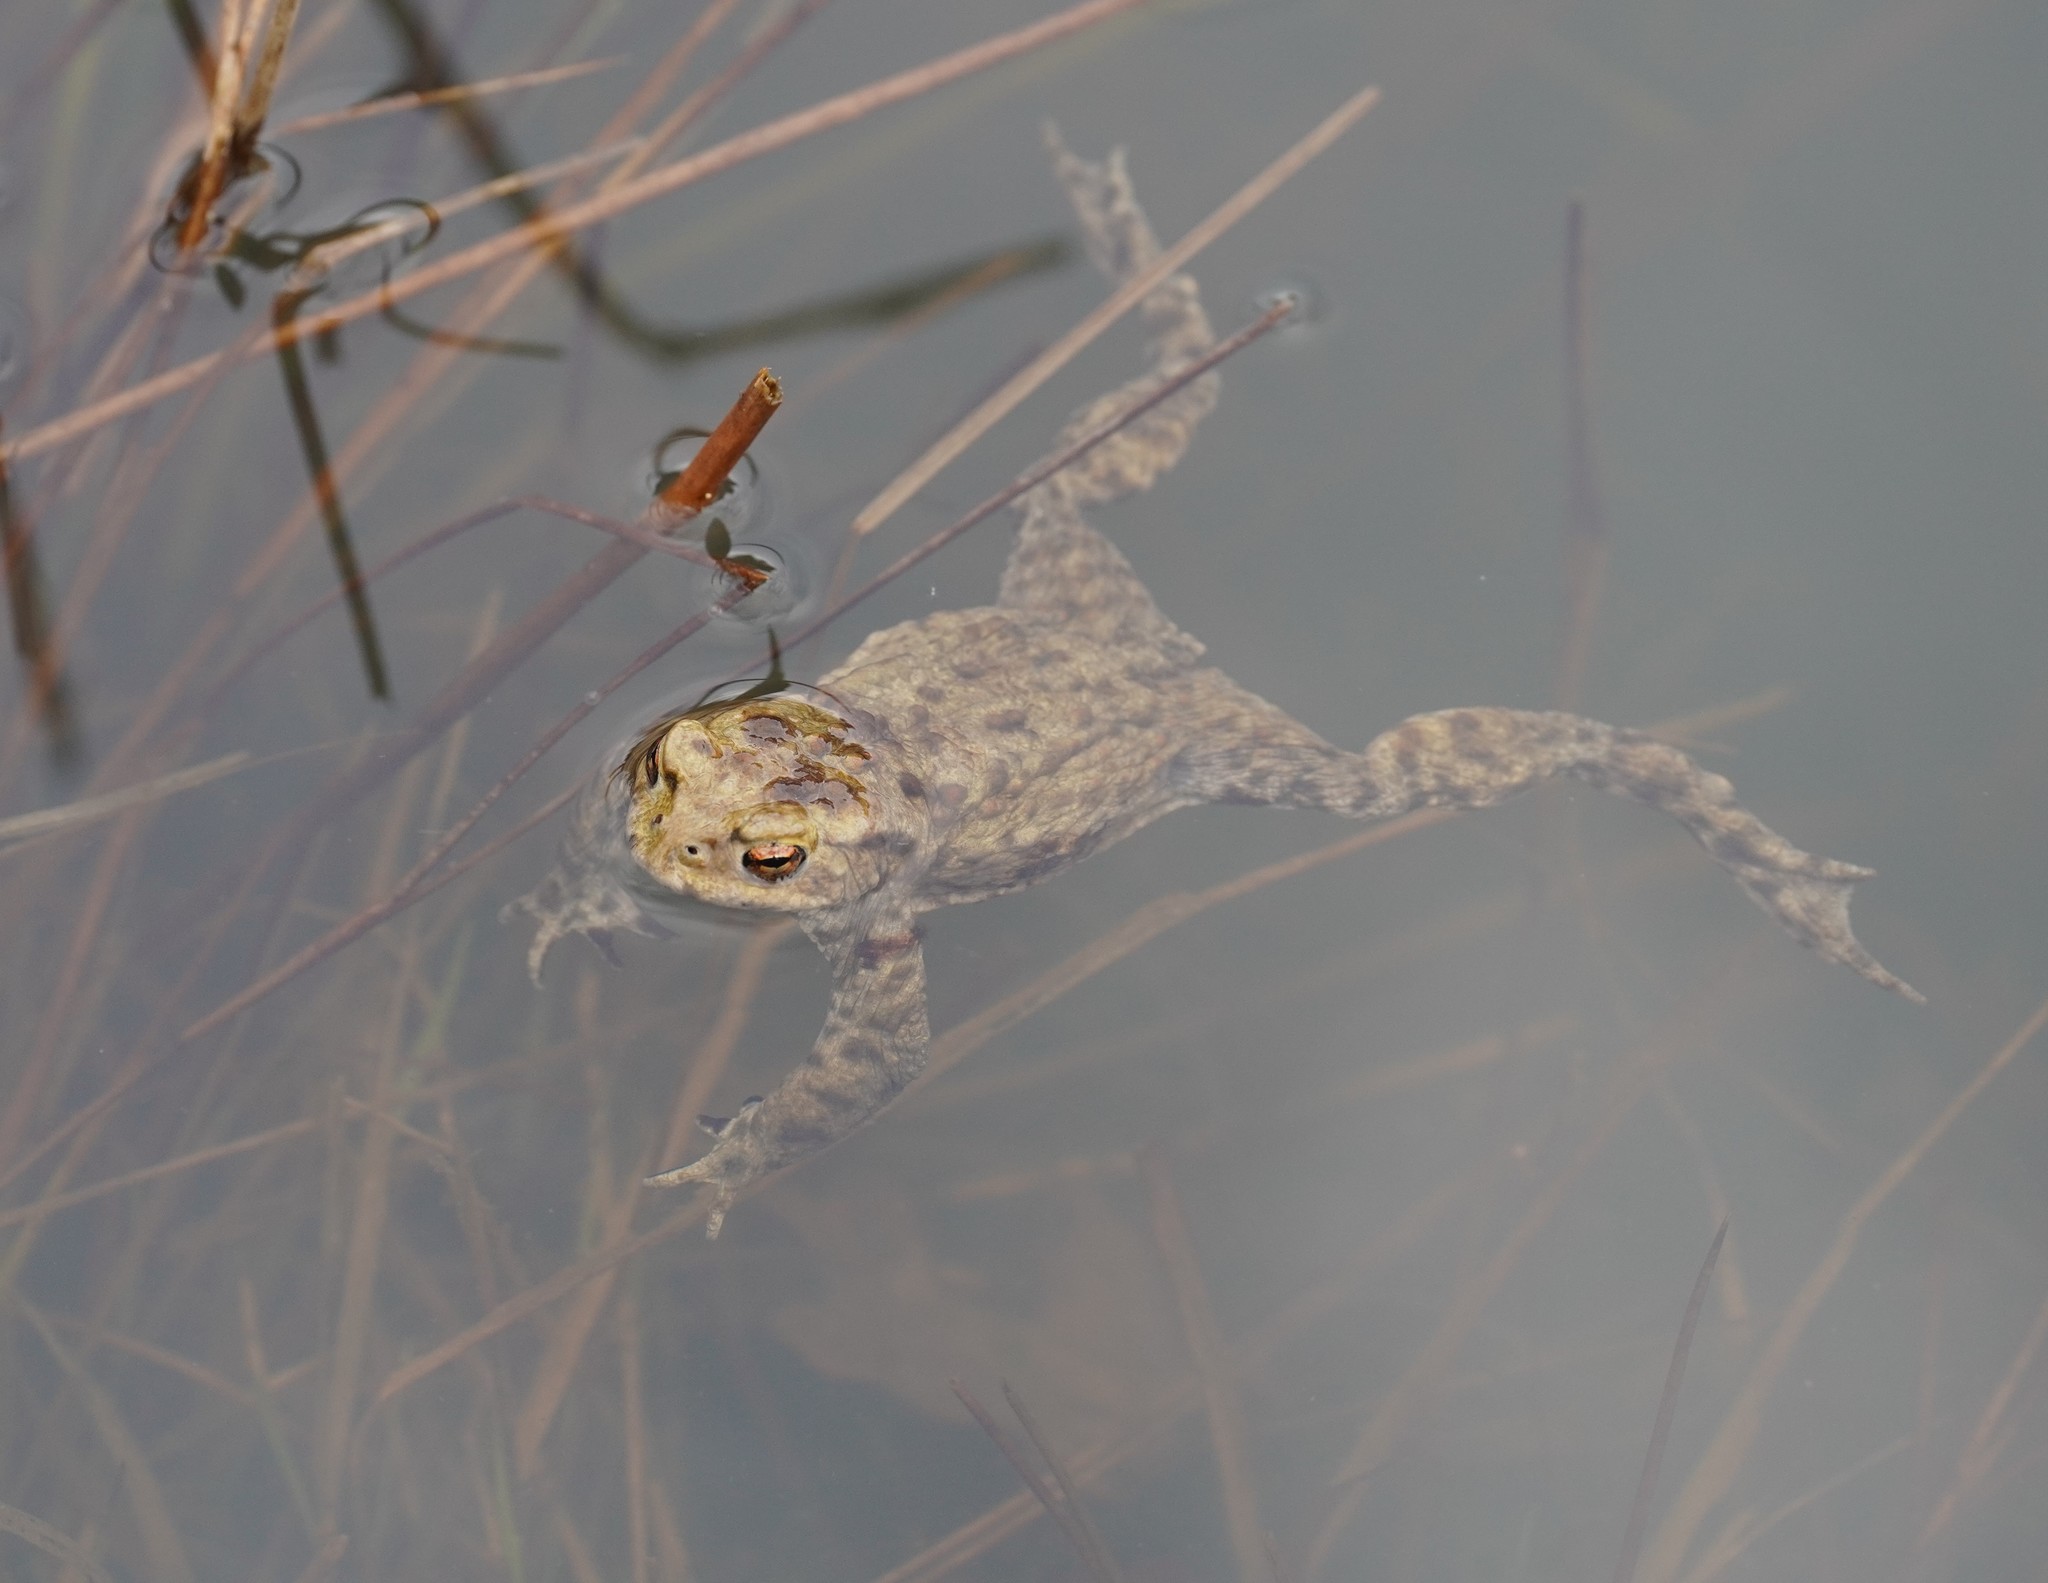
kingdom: Animalia
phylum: Chordata
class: Amphibia
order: Anura
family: Bufonidae
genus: Bufo
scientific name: Bufo bufo
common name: Common toad
